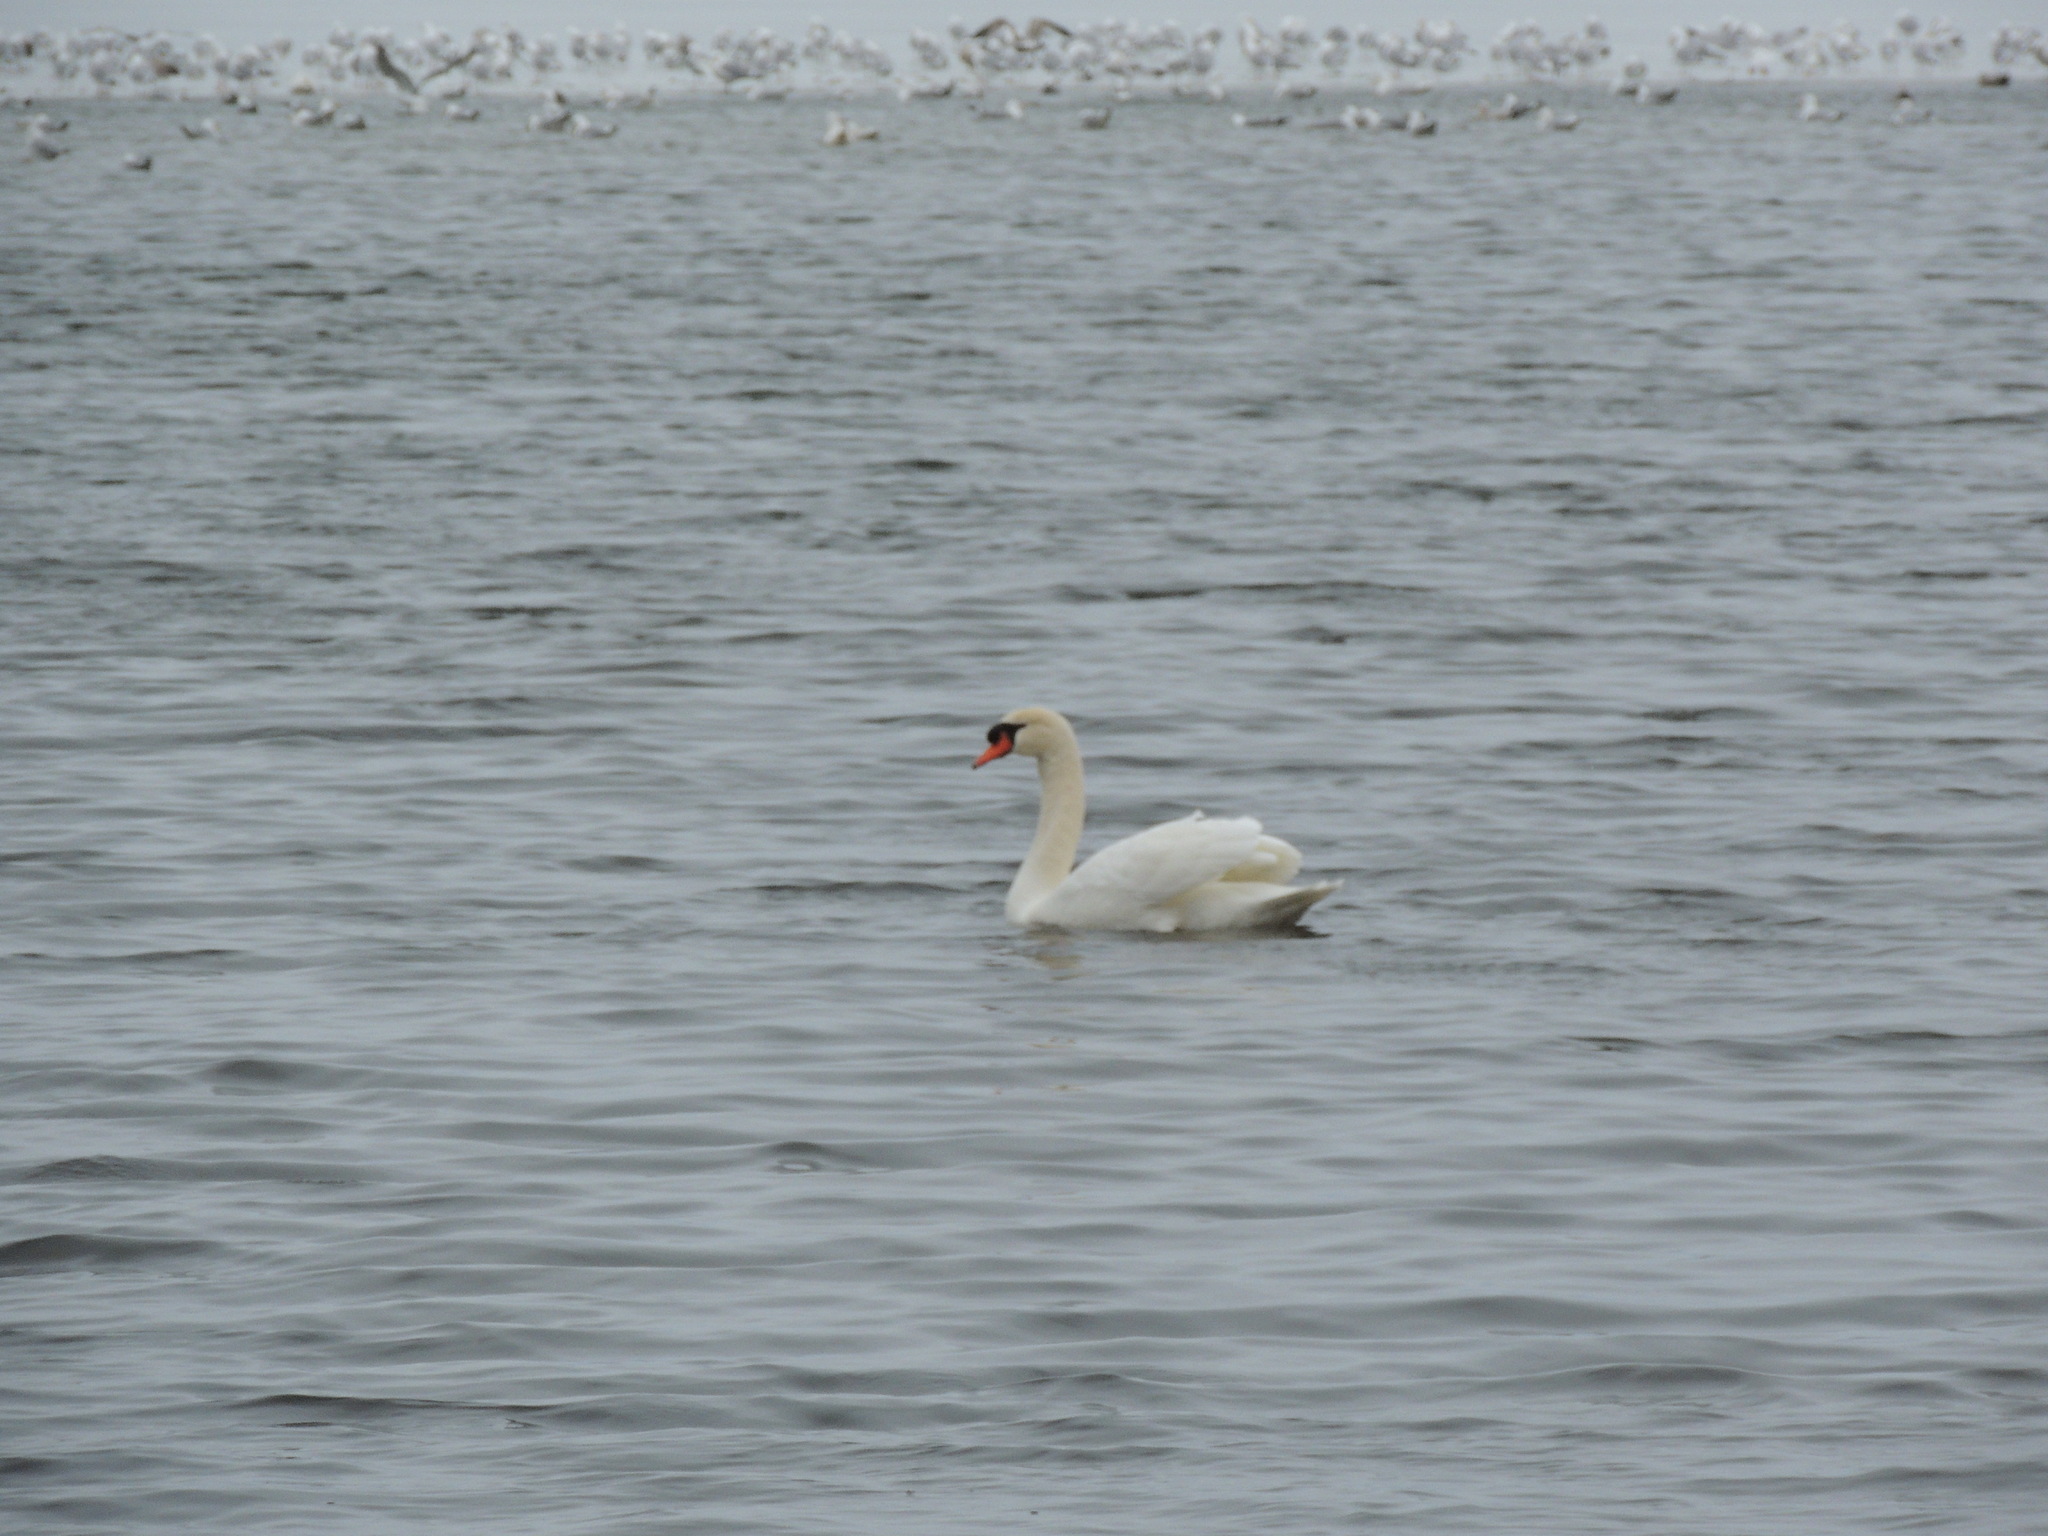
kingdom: Animalia
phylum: Chordata
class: Aves
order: Anseriformes
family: Anatidae
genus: Cygnus
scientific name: Cygnus olor
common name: Mute swan
